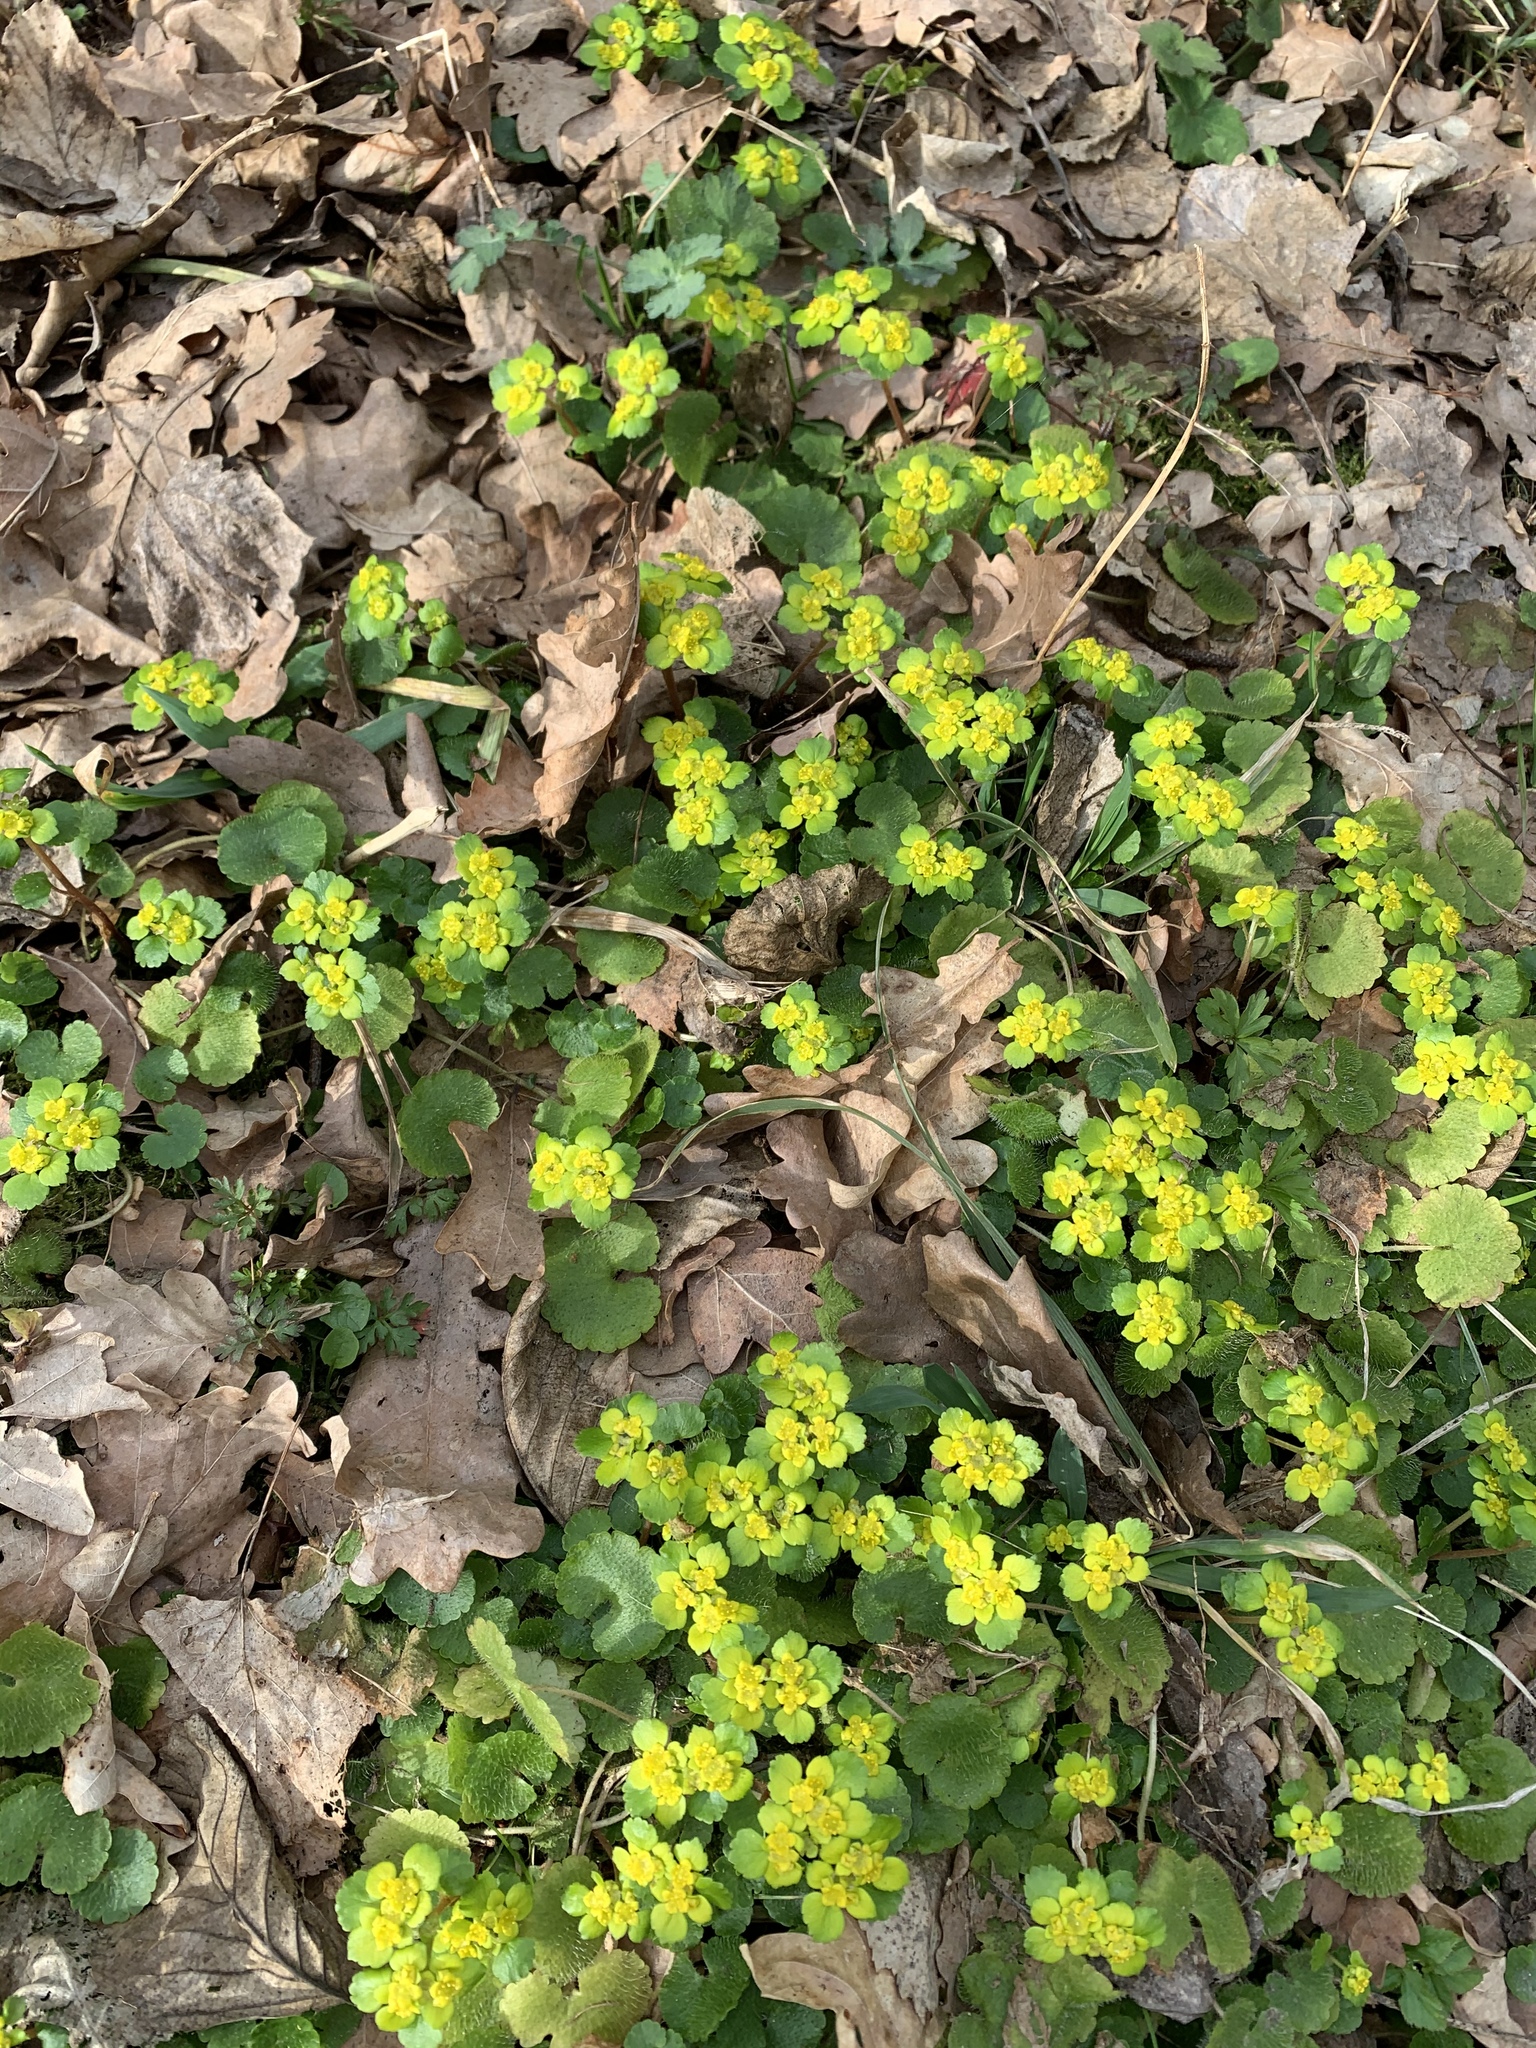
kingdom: Plantae
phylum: Tracheophyta
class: Magnoliopsida
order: Saxifragales
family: Saxifragaceae
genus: Chrysosplenium
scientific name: Chrysosplenium alternifolium
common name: Alternate-leaved golden-saxifrage
